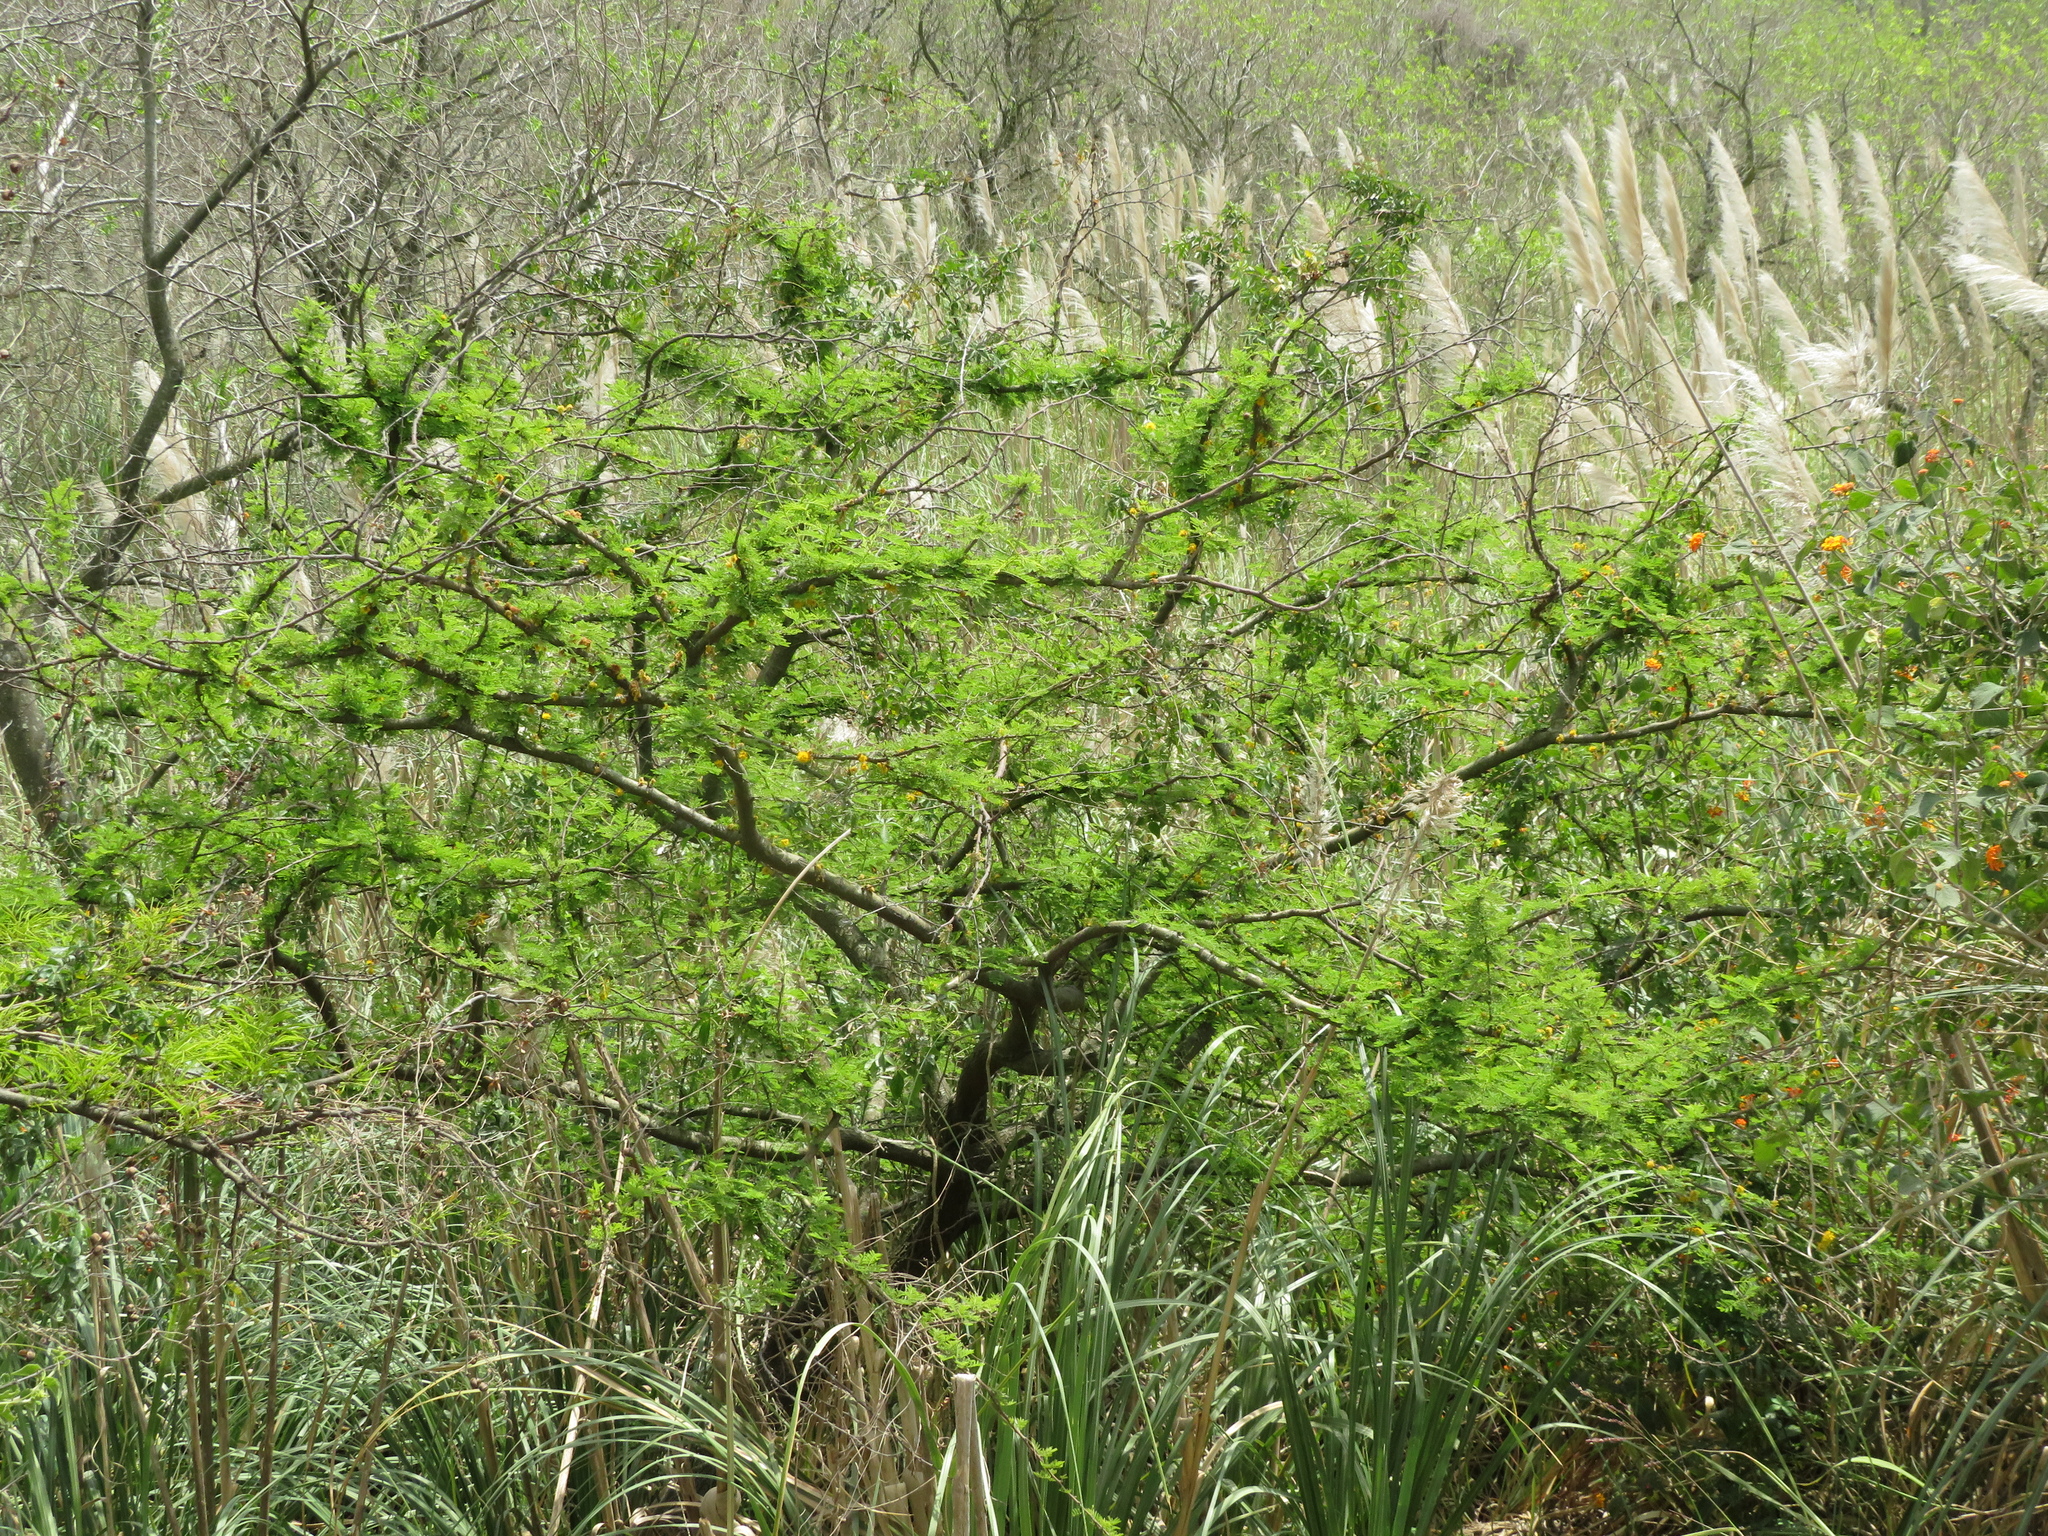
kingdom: Plantae
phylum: Tracheophyta
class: Magnoliopsida
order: Fabales
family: Fabaceae
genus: Vachellia
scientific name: Vachellia caven
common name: Roman cassie
